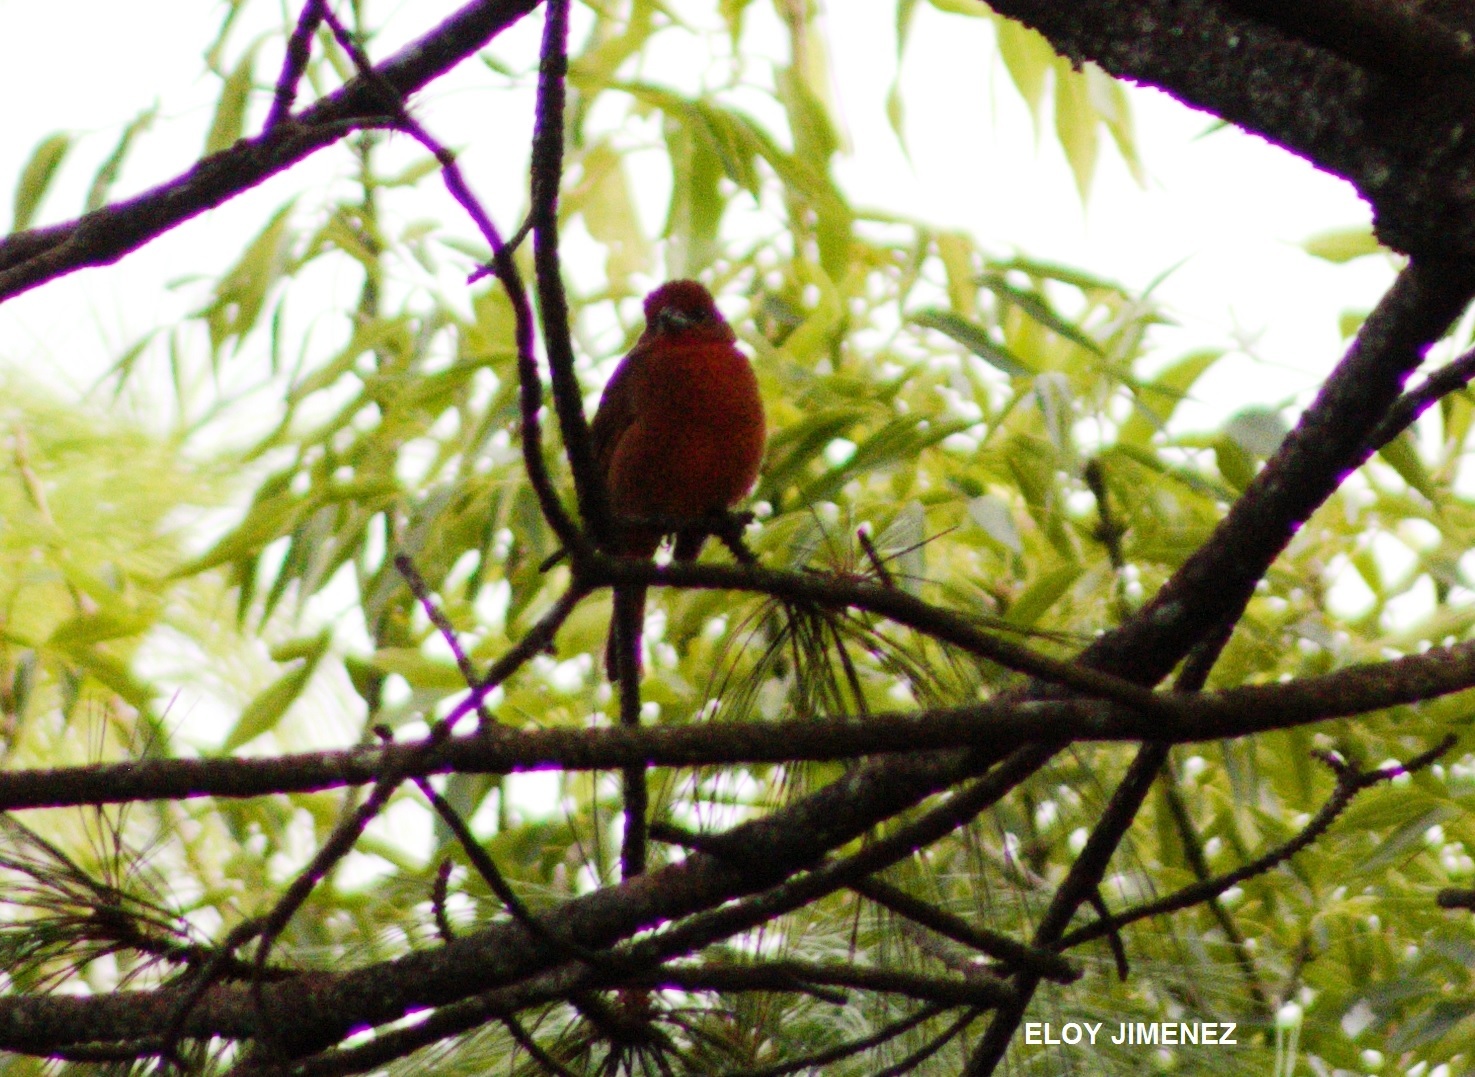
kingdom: Animalia
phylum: Chordata
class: Aves
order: Passeriformes
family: Cardinalidae
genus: Piranga
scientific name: Piranga flava
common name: Red tanager
